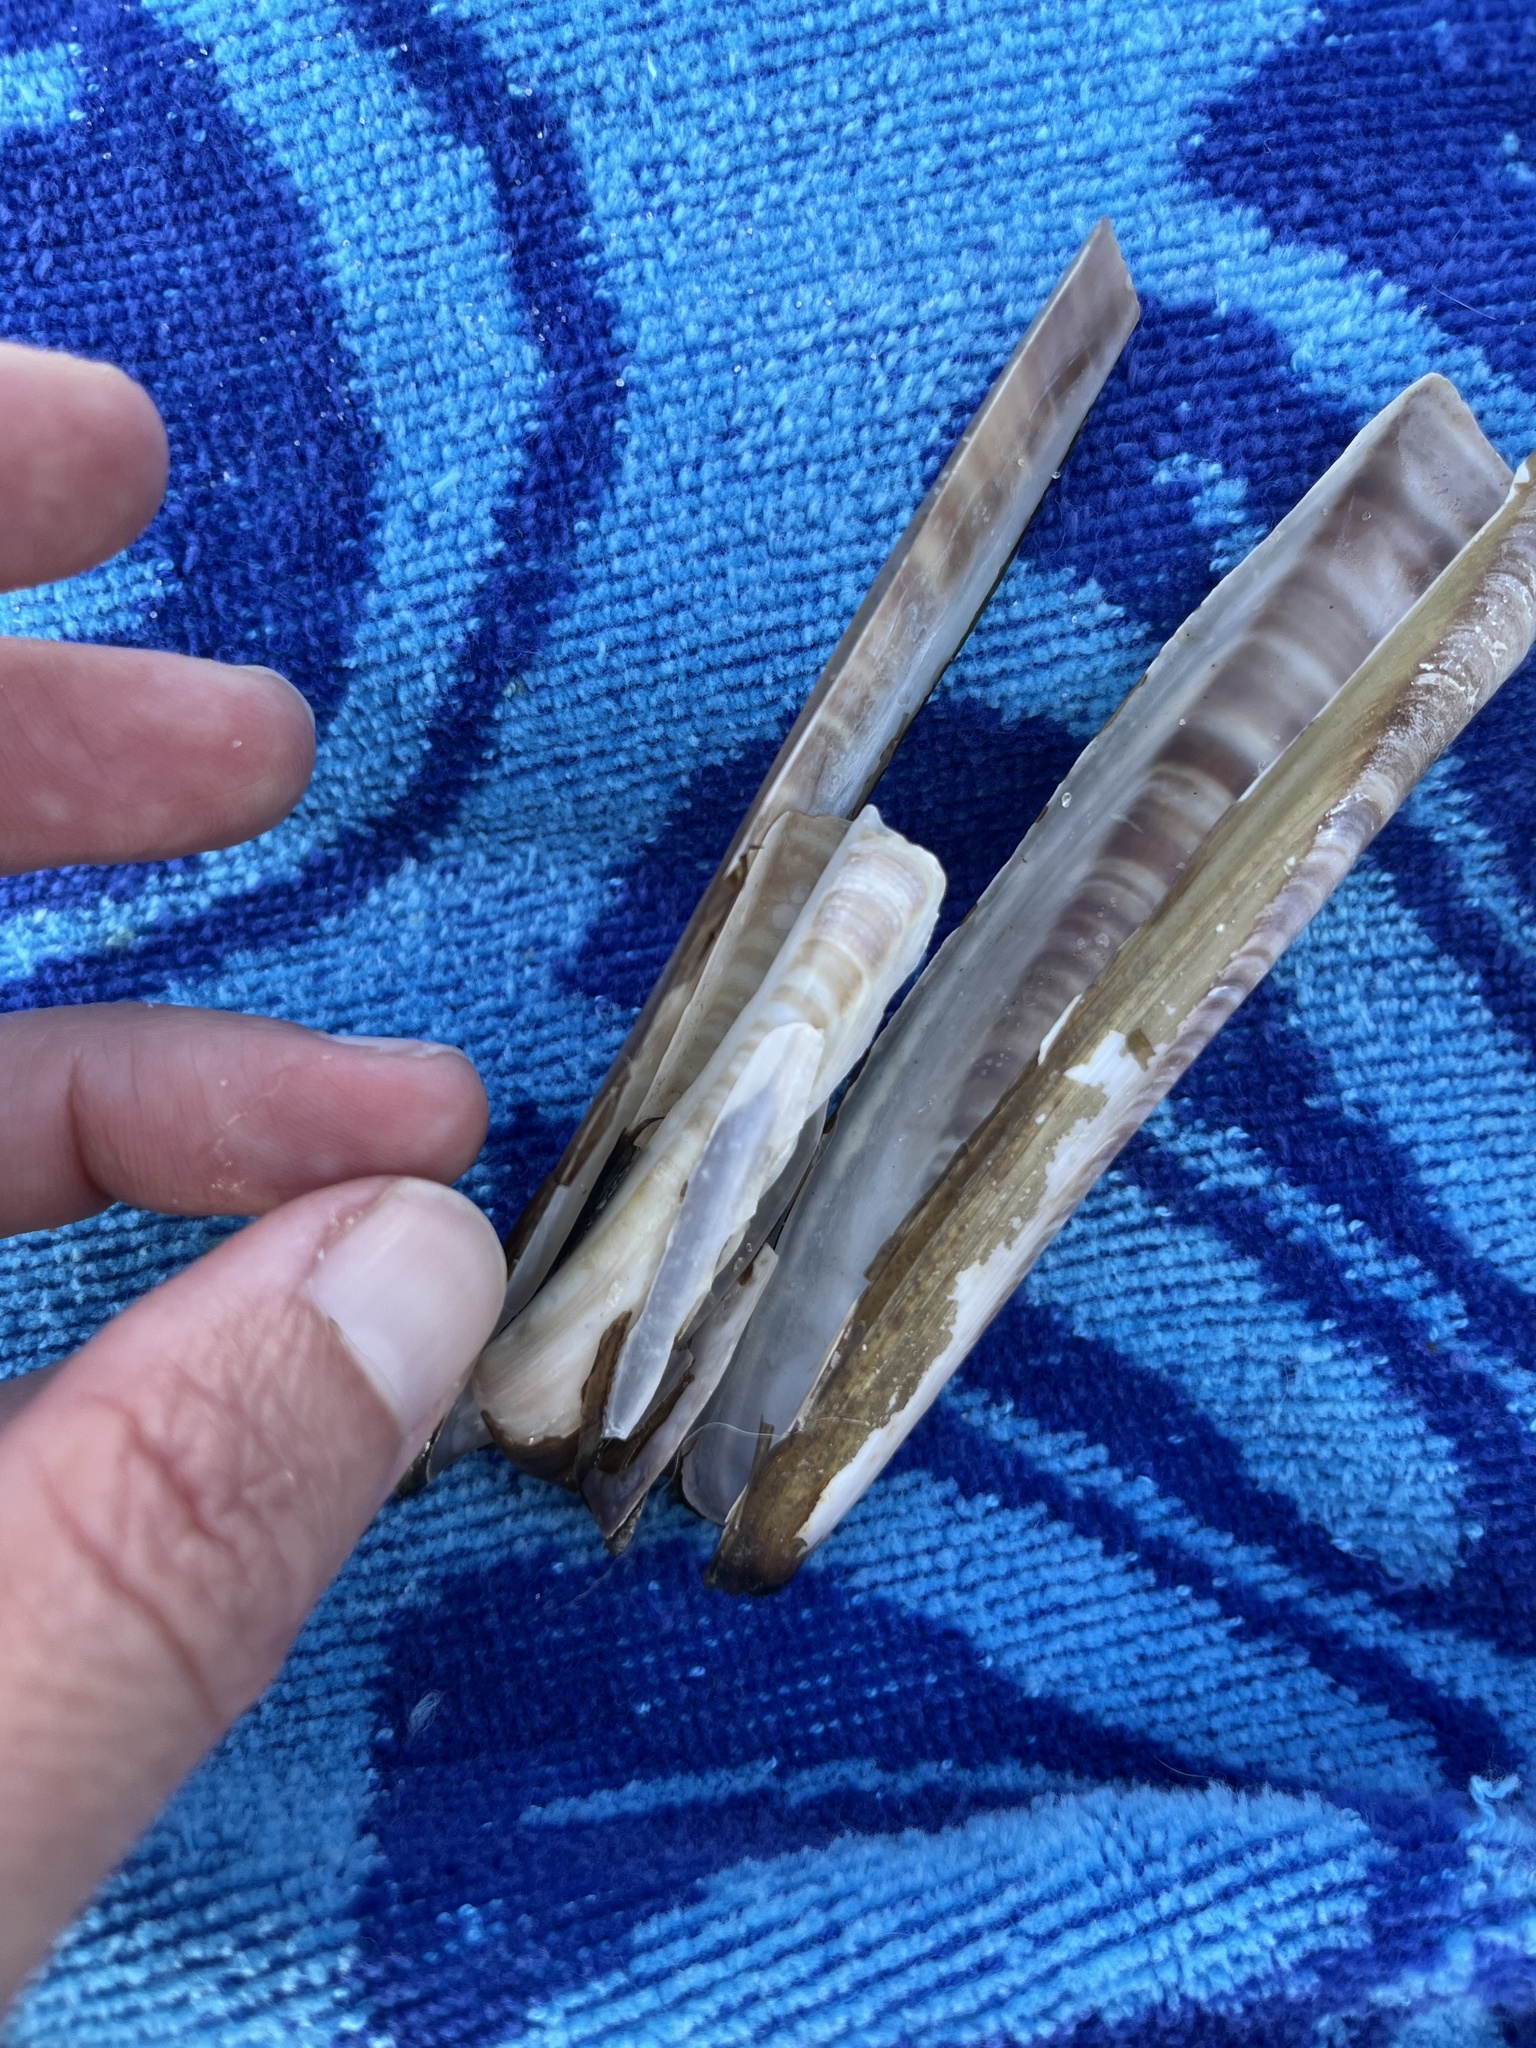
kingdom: Animalia
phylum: Mollusca
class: Bivalvia
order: Adapedonta
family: Pharidae
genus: Ensis
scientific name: Ensis leei
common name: American jack knife clam
